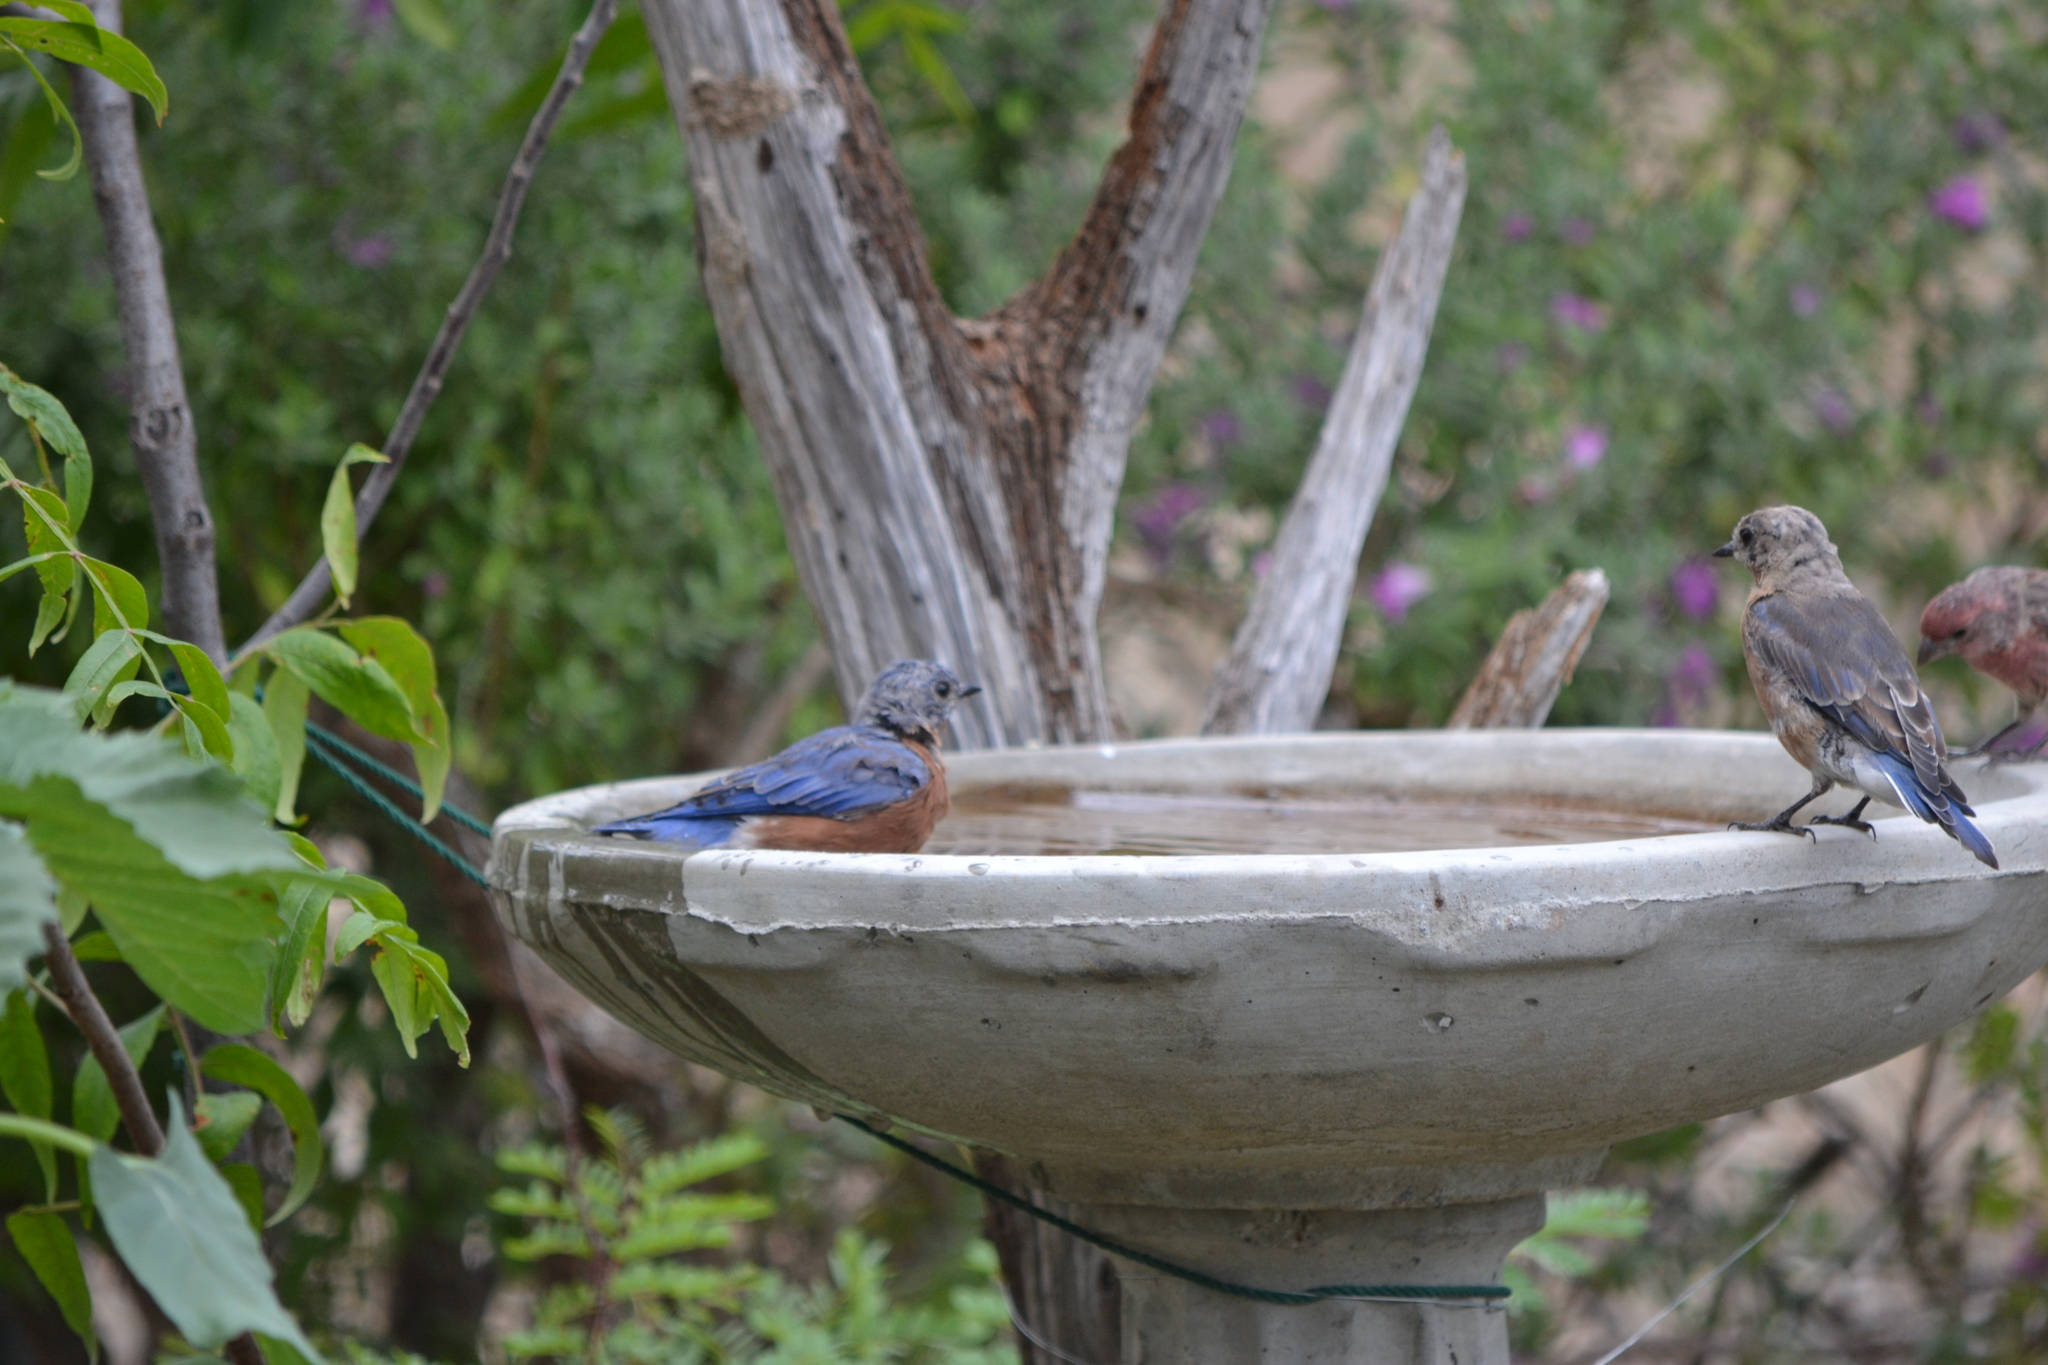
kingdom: Animalia
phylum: Chordata
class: Aves
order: Passeriformes
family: Turdidae
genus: Sialia
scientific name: Sialia sialis
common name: Eastern bluebird
